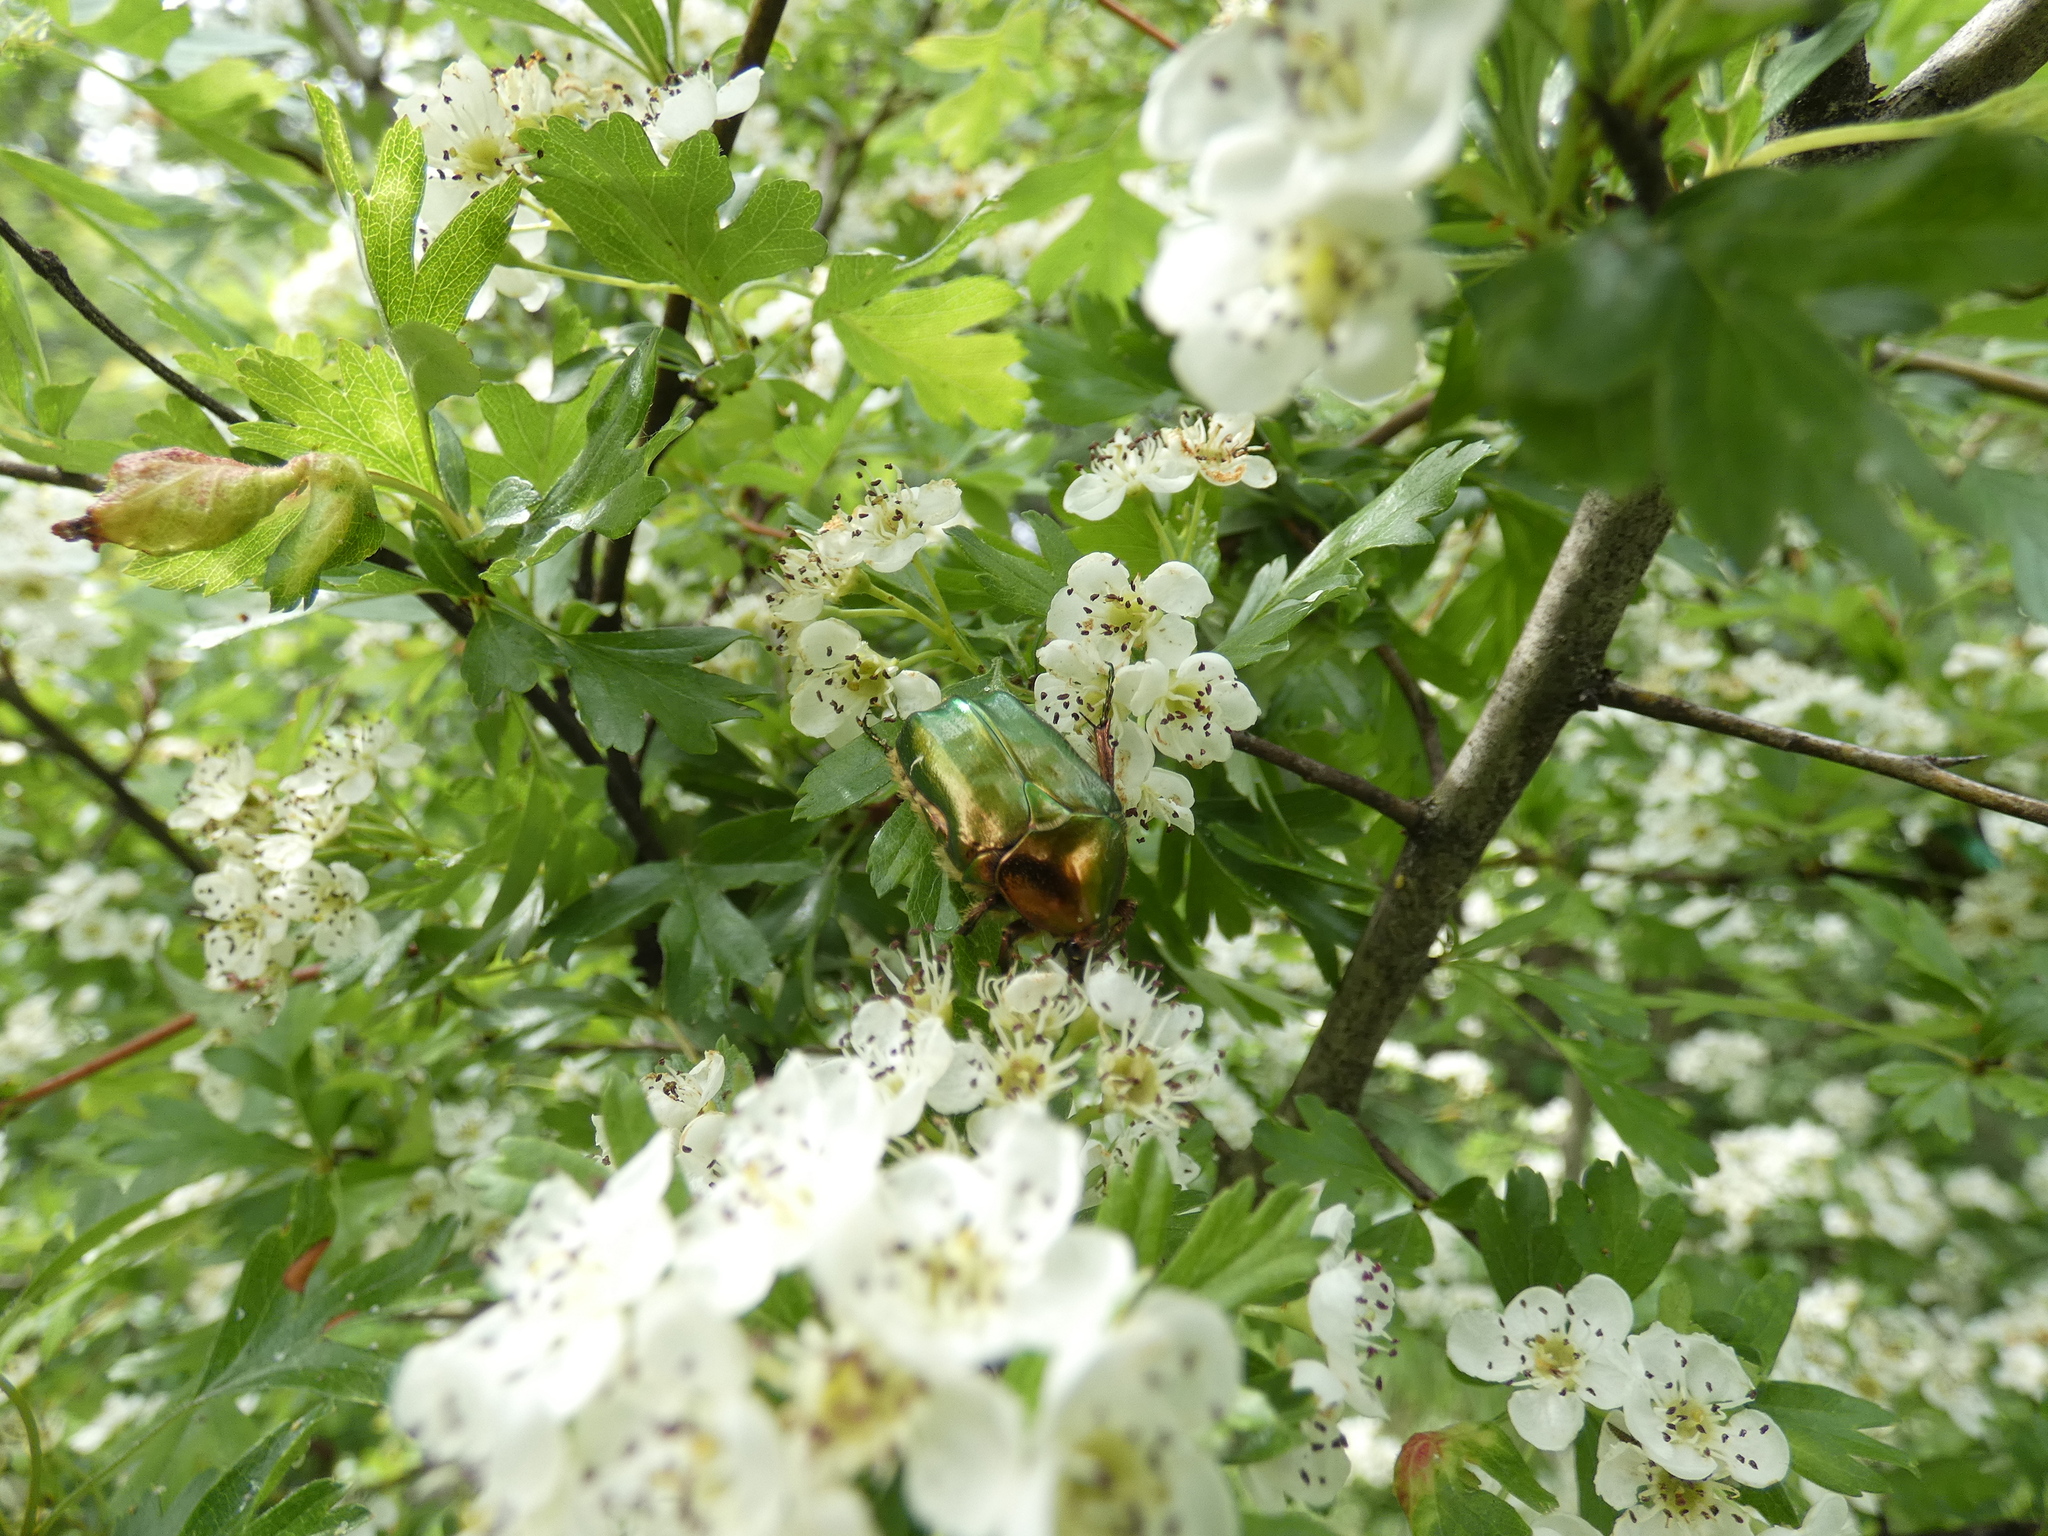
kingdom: Animalia
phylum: Arthropoda
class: Insecta
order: Coleoptera
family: Scarabaeidae
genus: Cetonia
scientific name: Cetonia aurata
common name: Rose chafer
